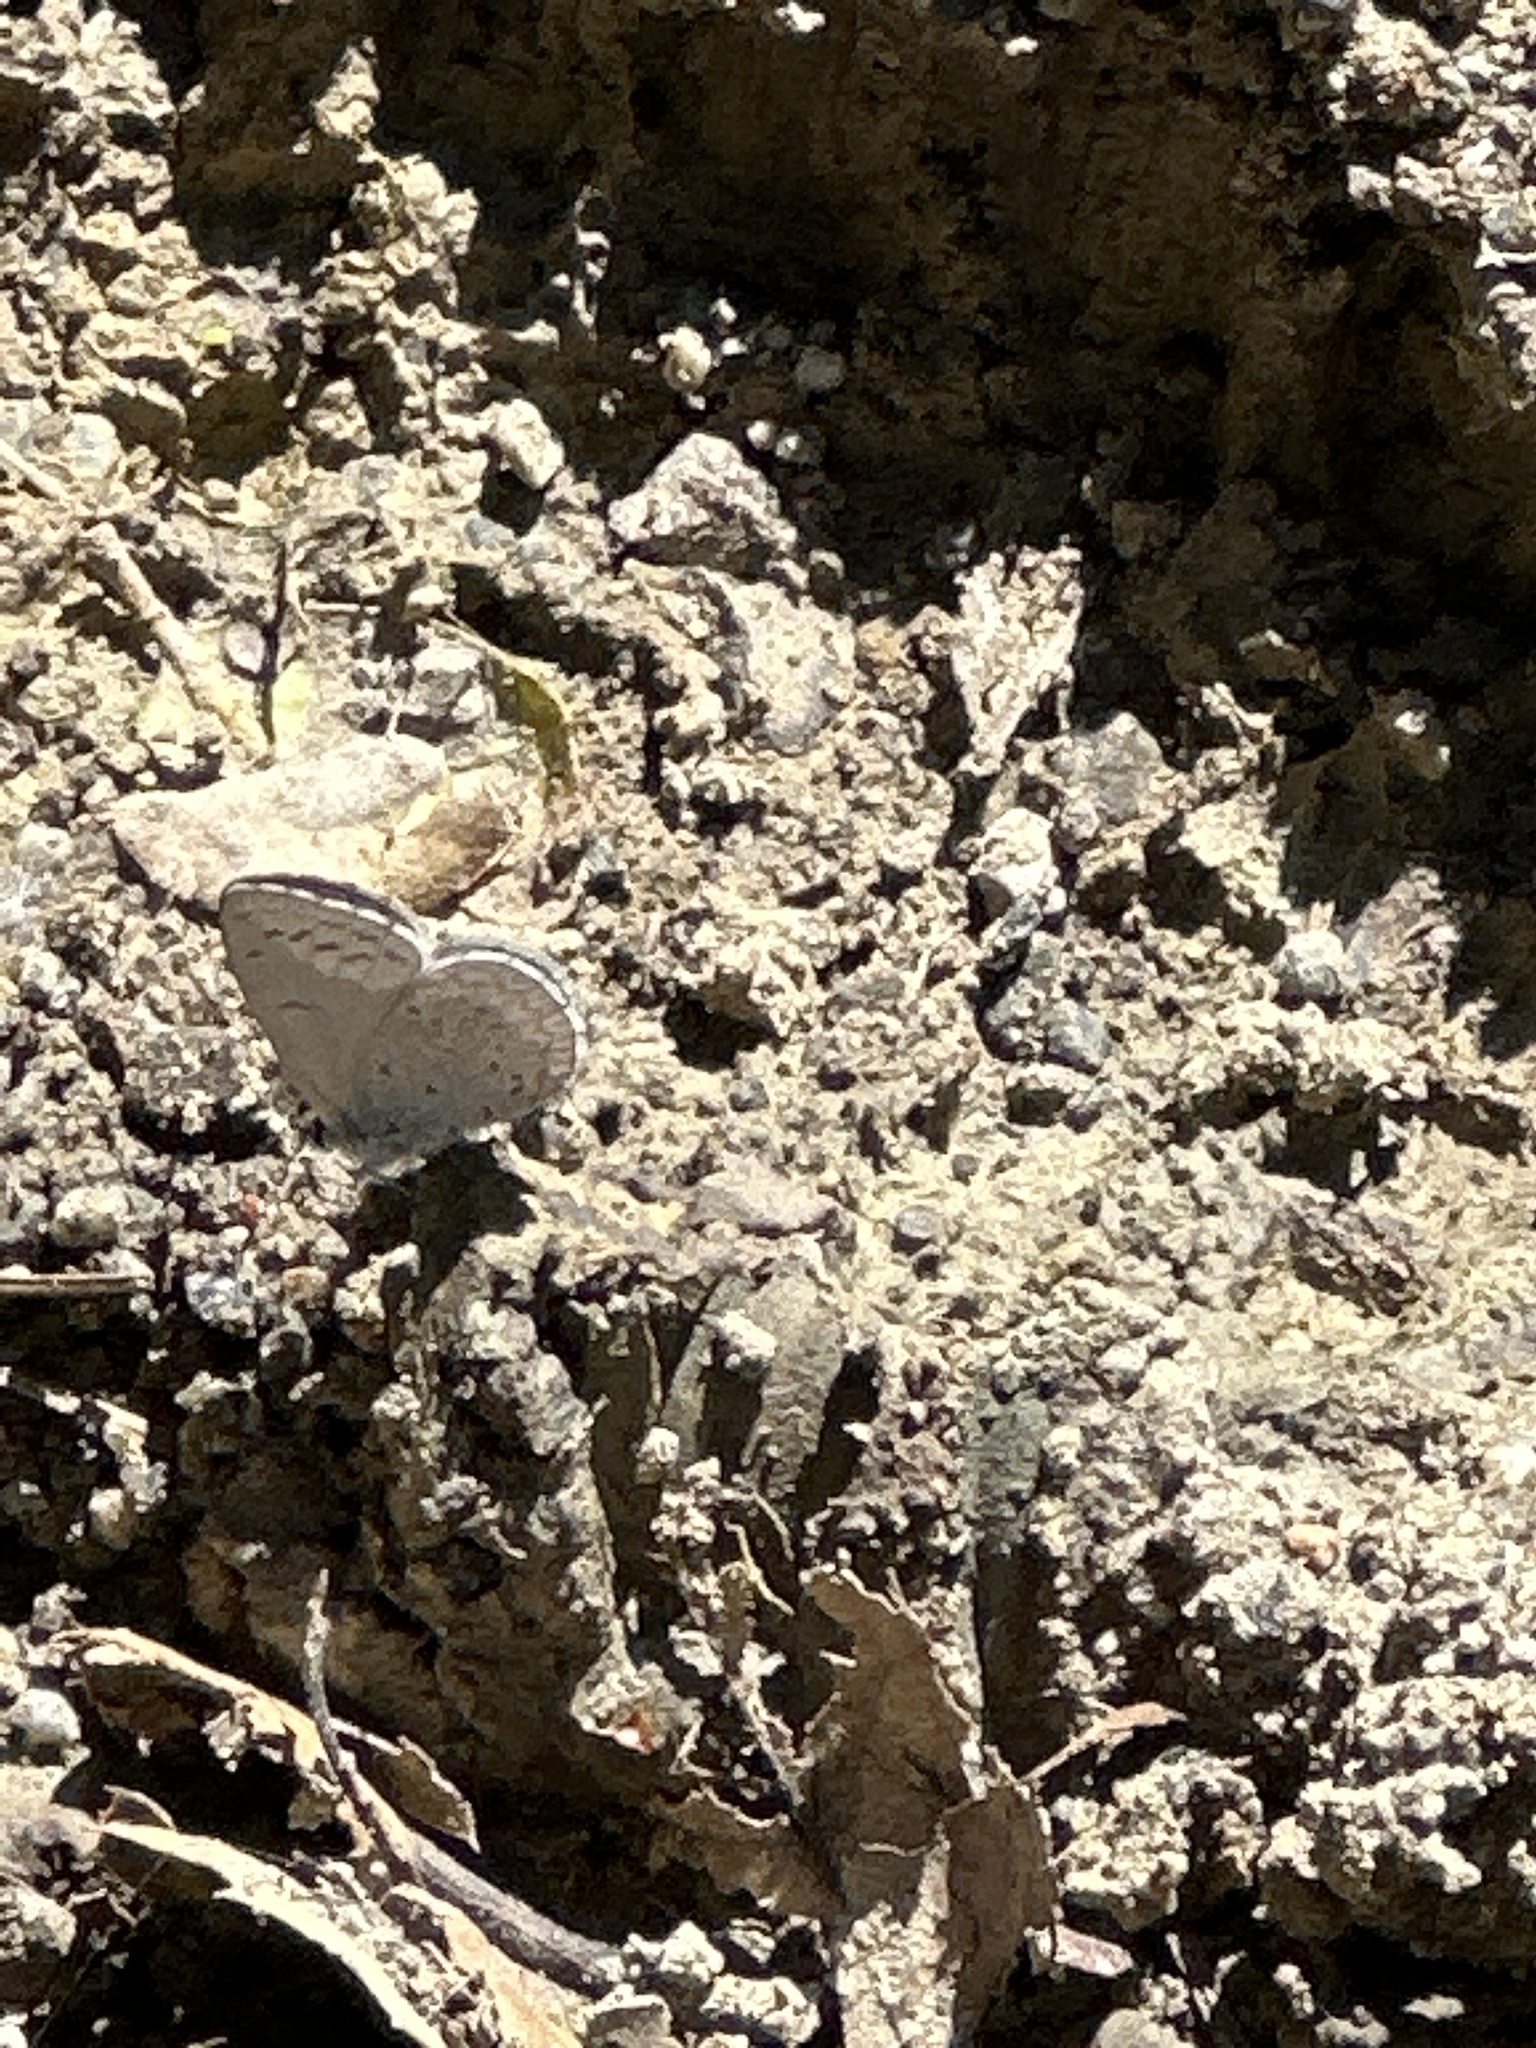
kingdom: Animalia
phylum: Arthropoda
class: Insecta
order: Lepidoptera
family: Lycaenidae
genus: Celastrina
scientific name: Celastrina ladon
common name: Spring azure
